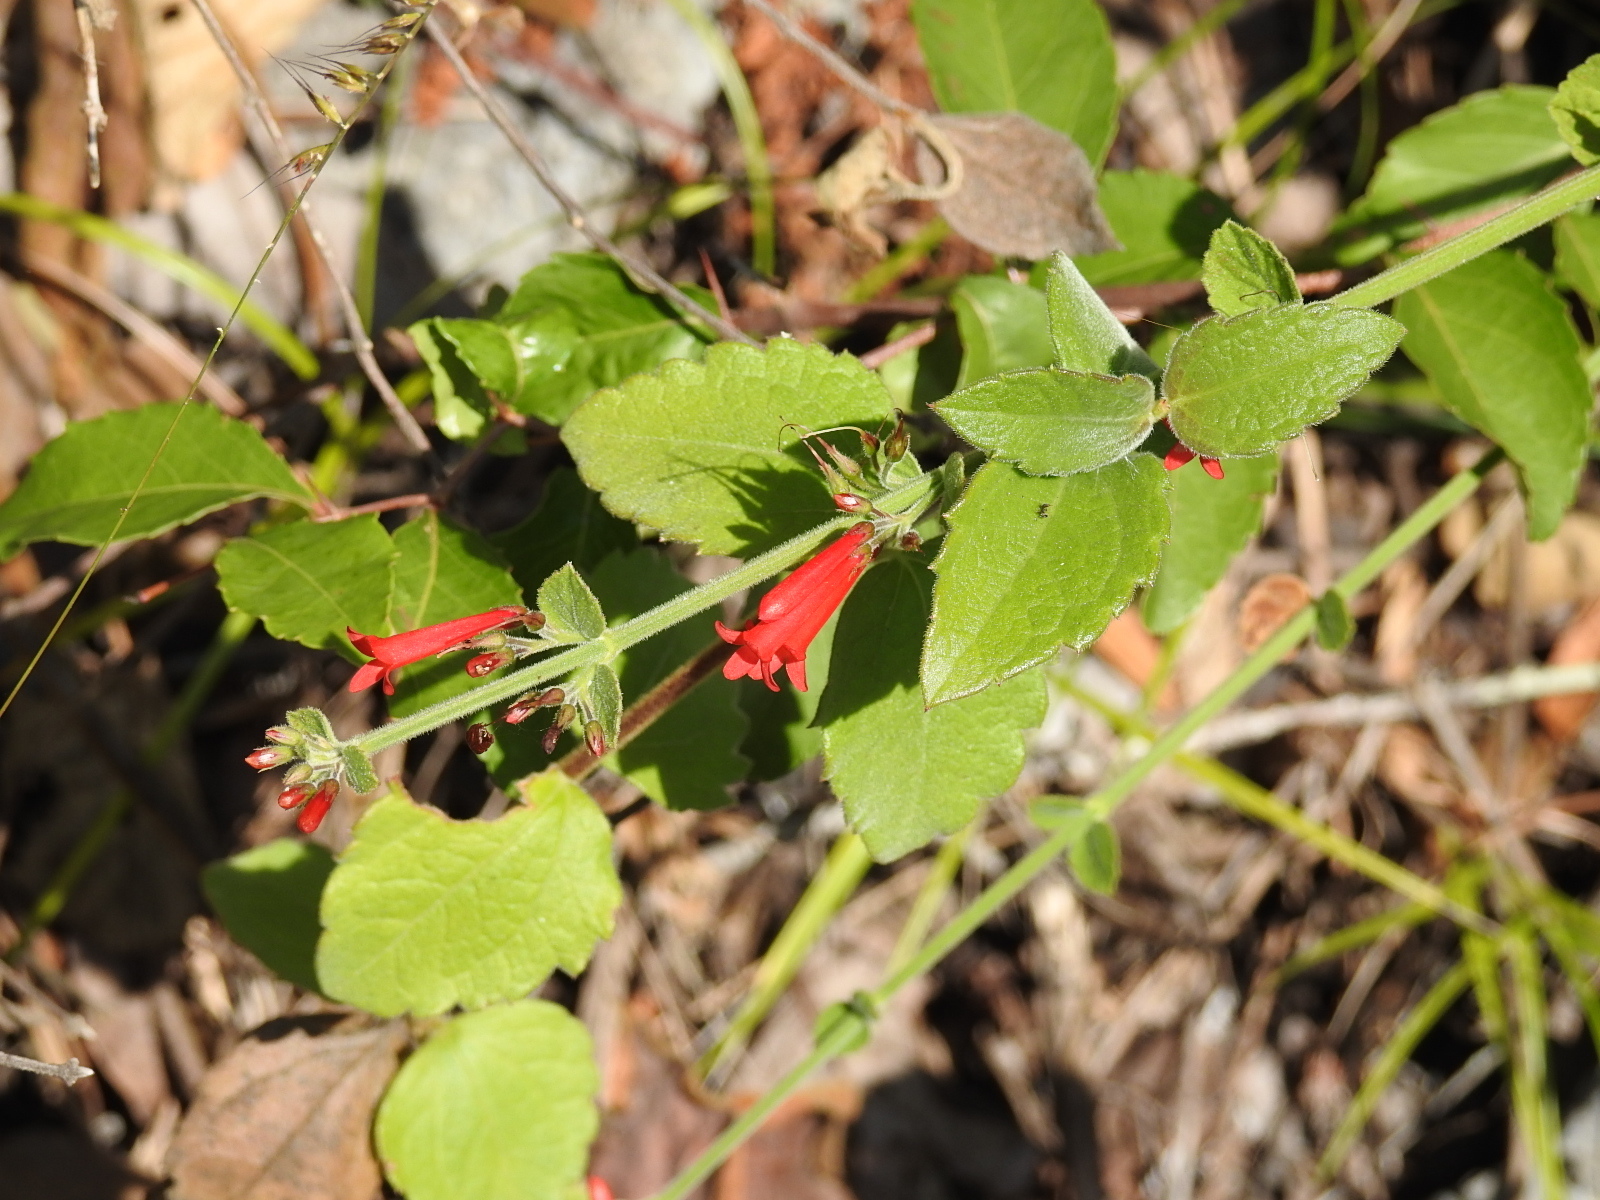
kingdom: Plantae
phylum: Tracheophyta
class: Magnoliopsida
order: Lamiales
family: Plantaginaceae
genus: Russelia
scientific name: Russelia sarmentosa
